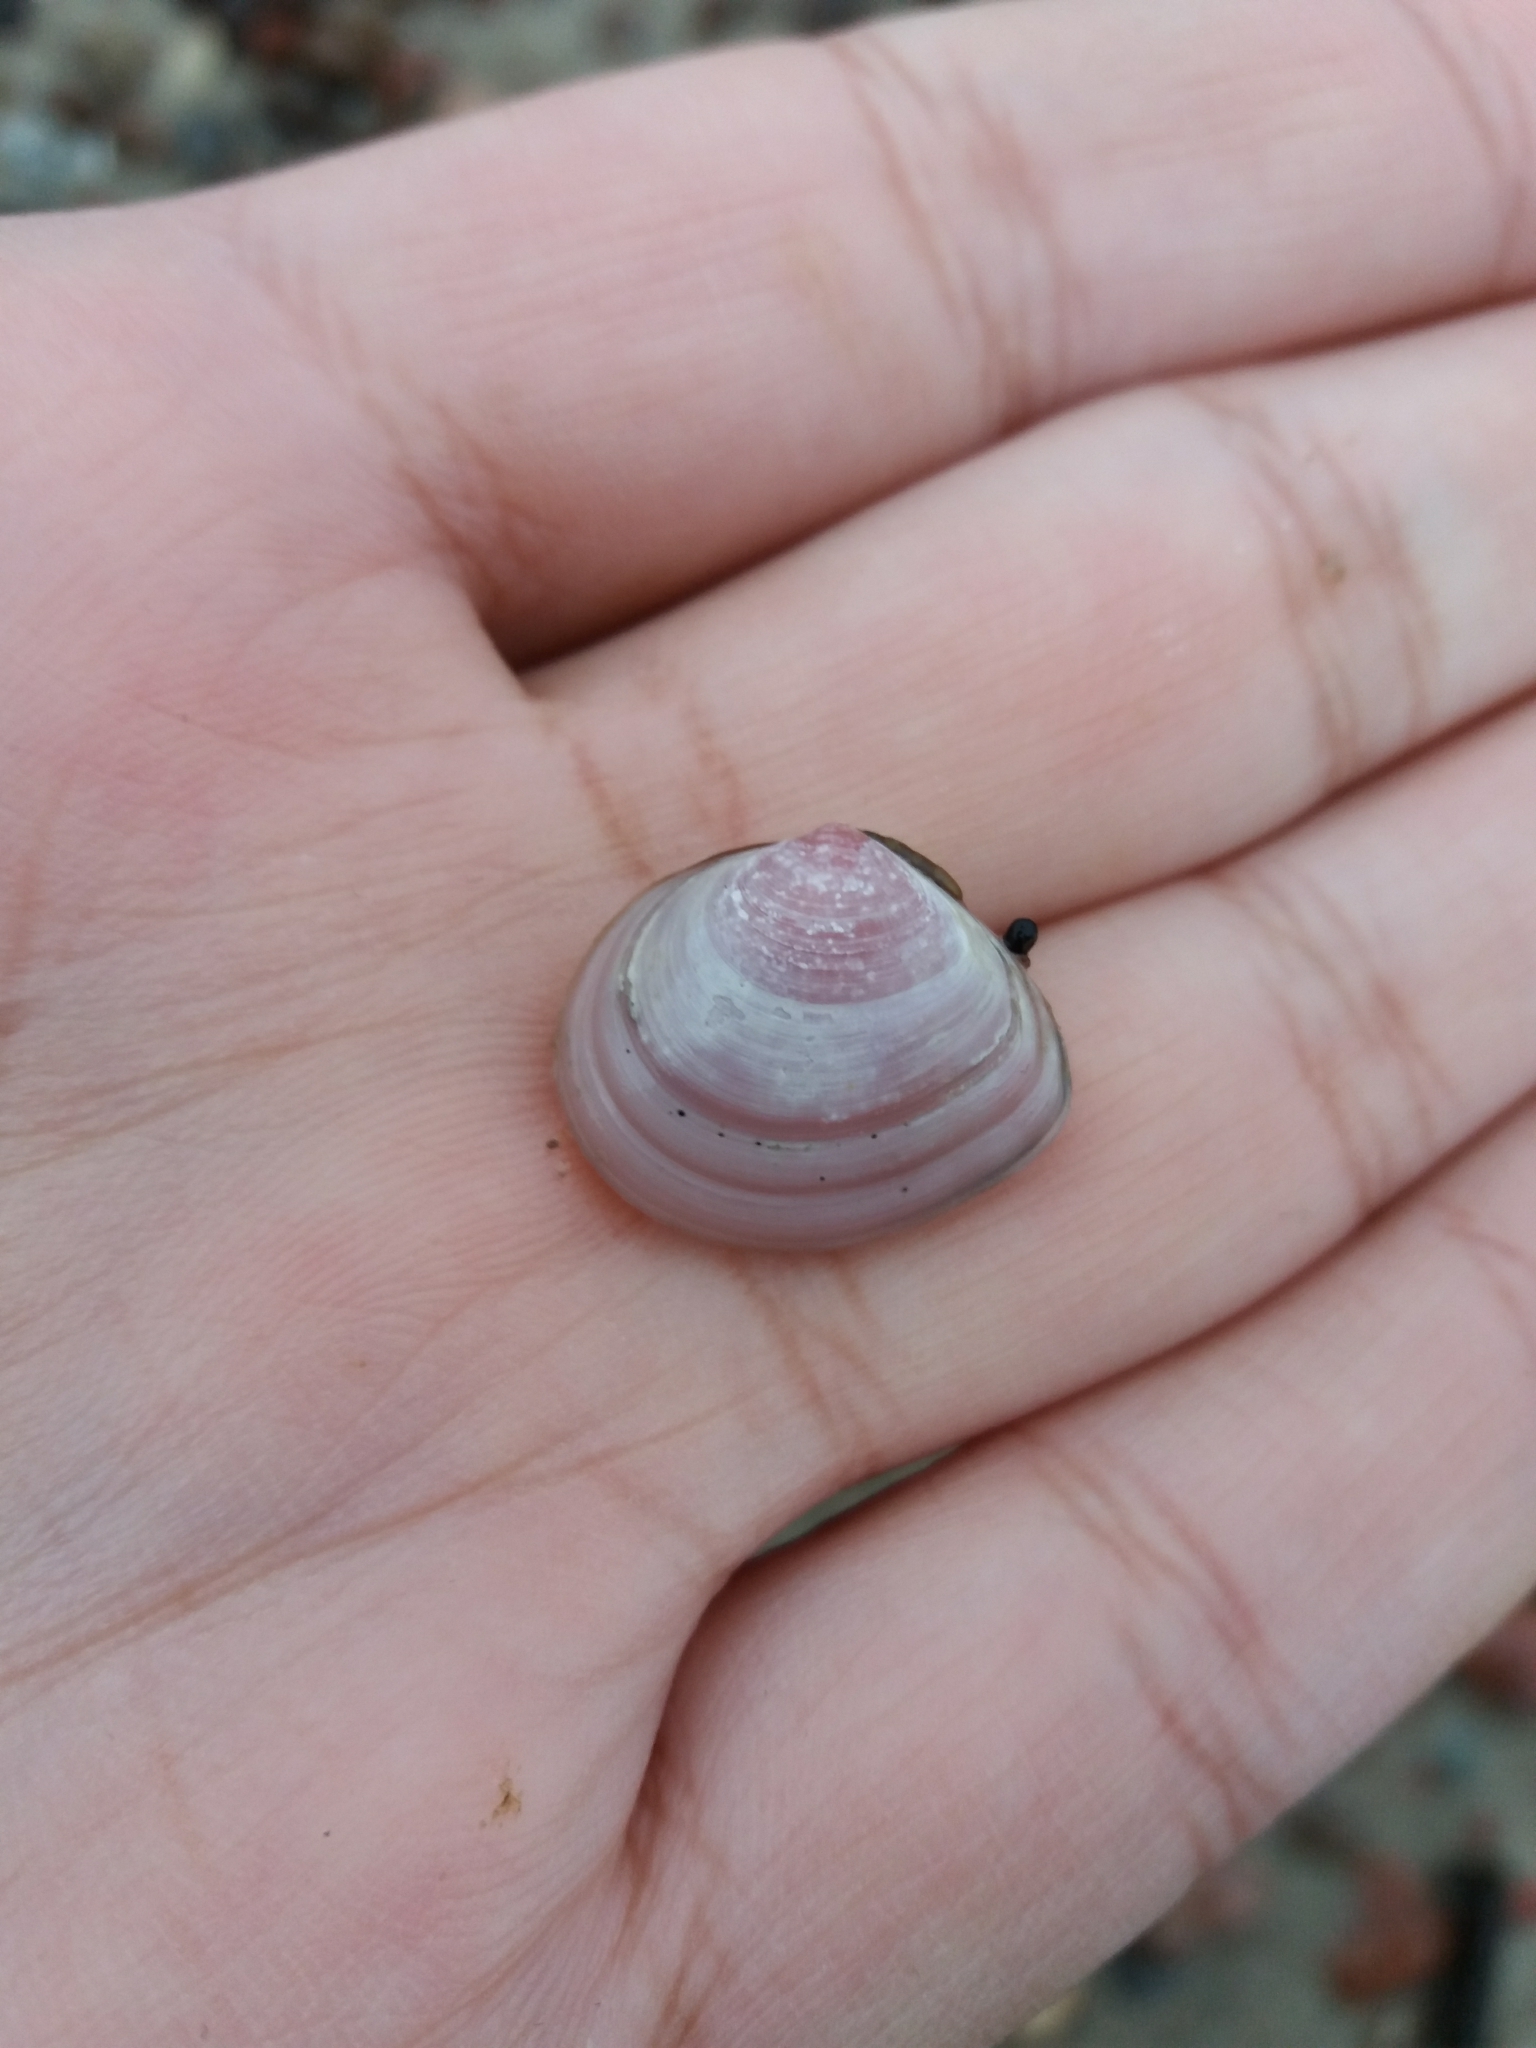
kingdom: Animalia
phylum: Mollusca
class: Bivalvia
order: Cardiida
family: Tellinidae
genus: Macoma
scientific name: Macoma balthica
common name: Baltic tellin
